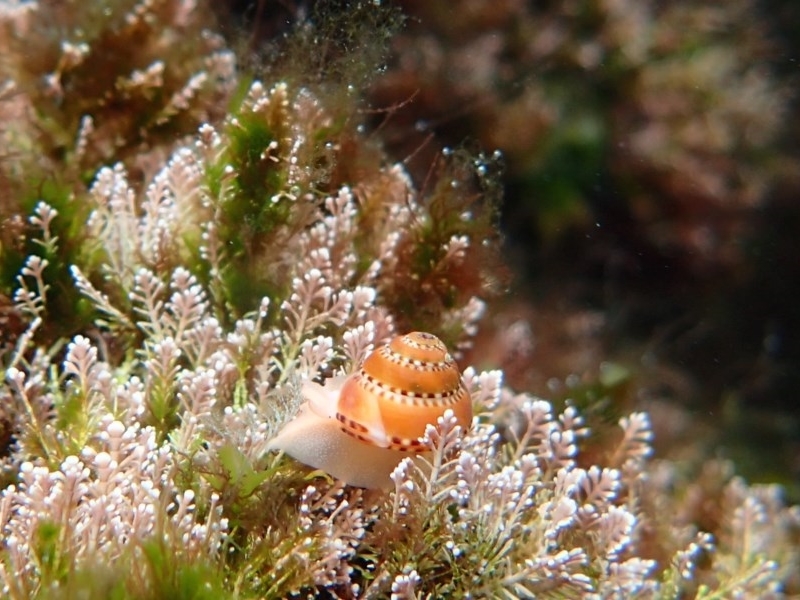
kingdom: Animalia
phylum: Mollusca
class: Gastropoda
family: Architectonicidae
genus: Philippia
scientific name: Philippia lutea
